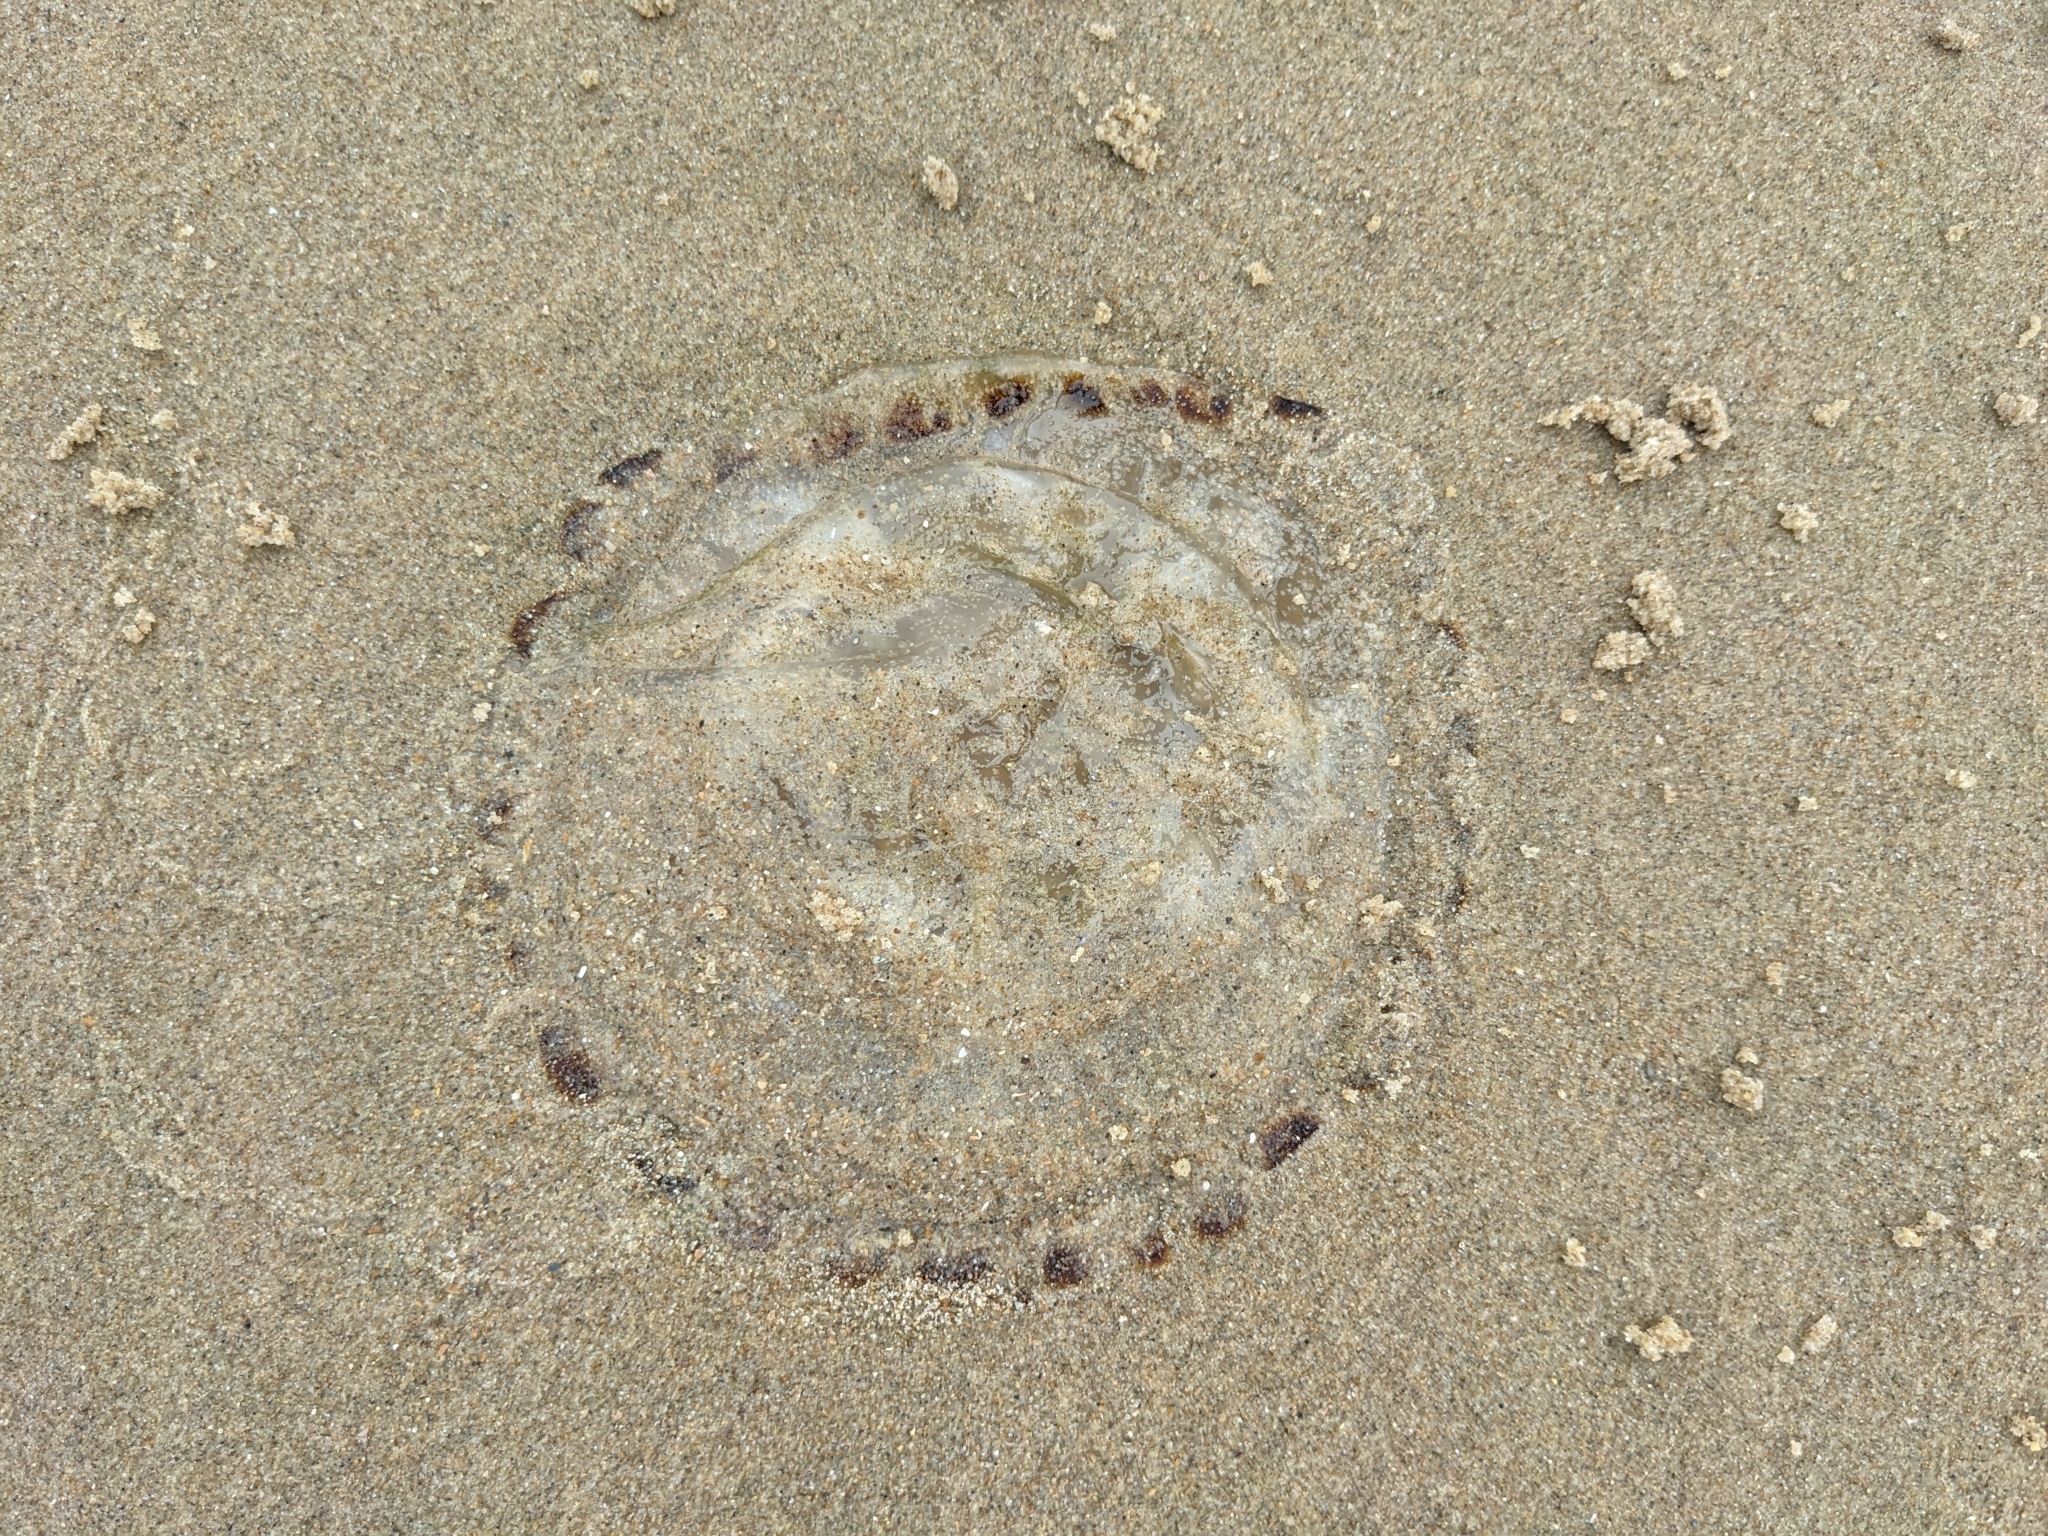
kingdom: Animalia
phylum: Cnidaria
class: Scyphozoa
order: Semaeostomeae
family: Pelagiidae
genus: Chrysaora
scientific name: Chrysaora hysoscella
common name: Compass jellyfish
